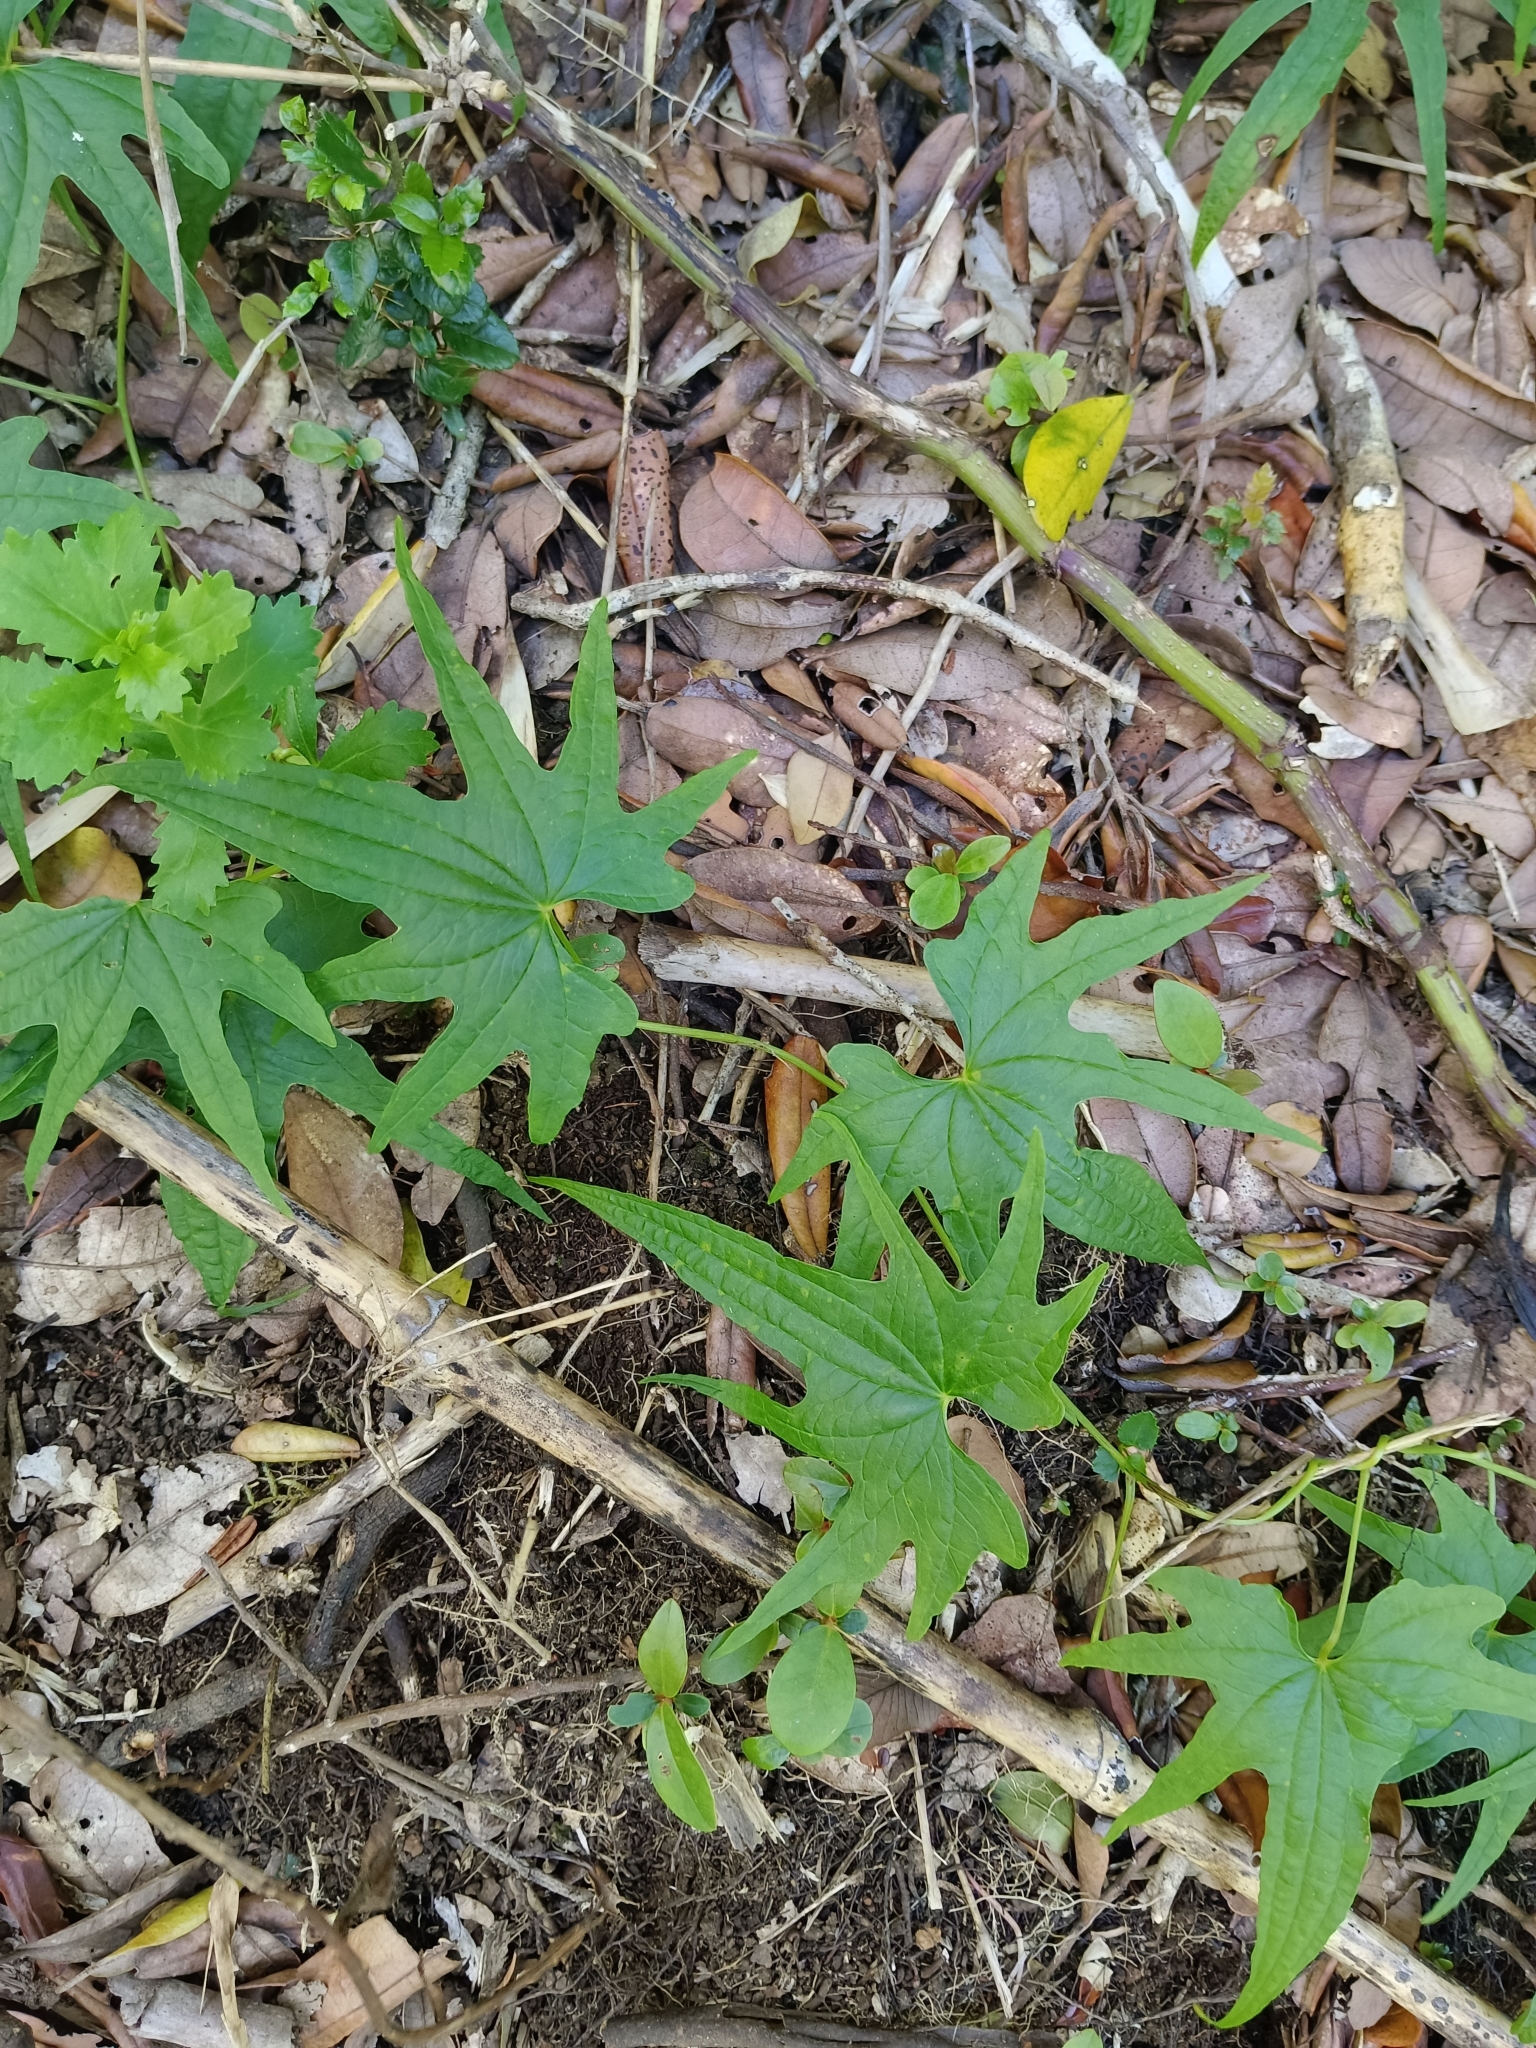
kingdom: Plantae
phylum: Tracheophyta
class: Liliopsida
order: Dioscoreales
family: Dioscoreaceae
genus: Dioscorea
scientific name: Dioscorea brachybotrya
